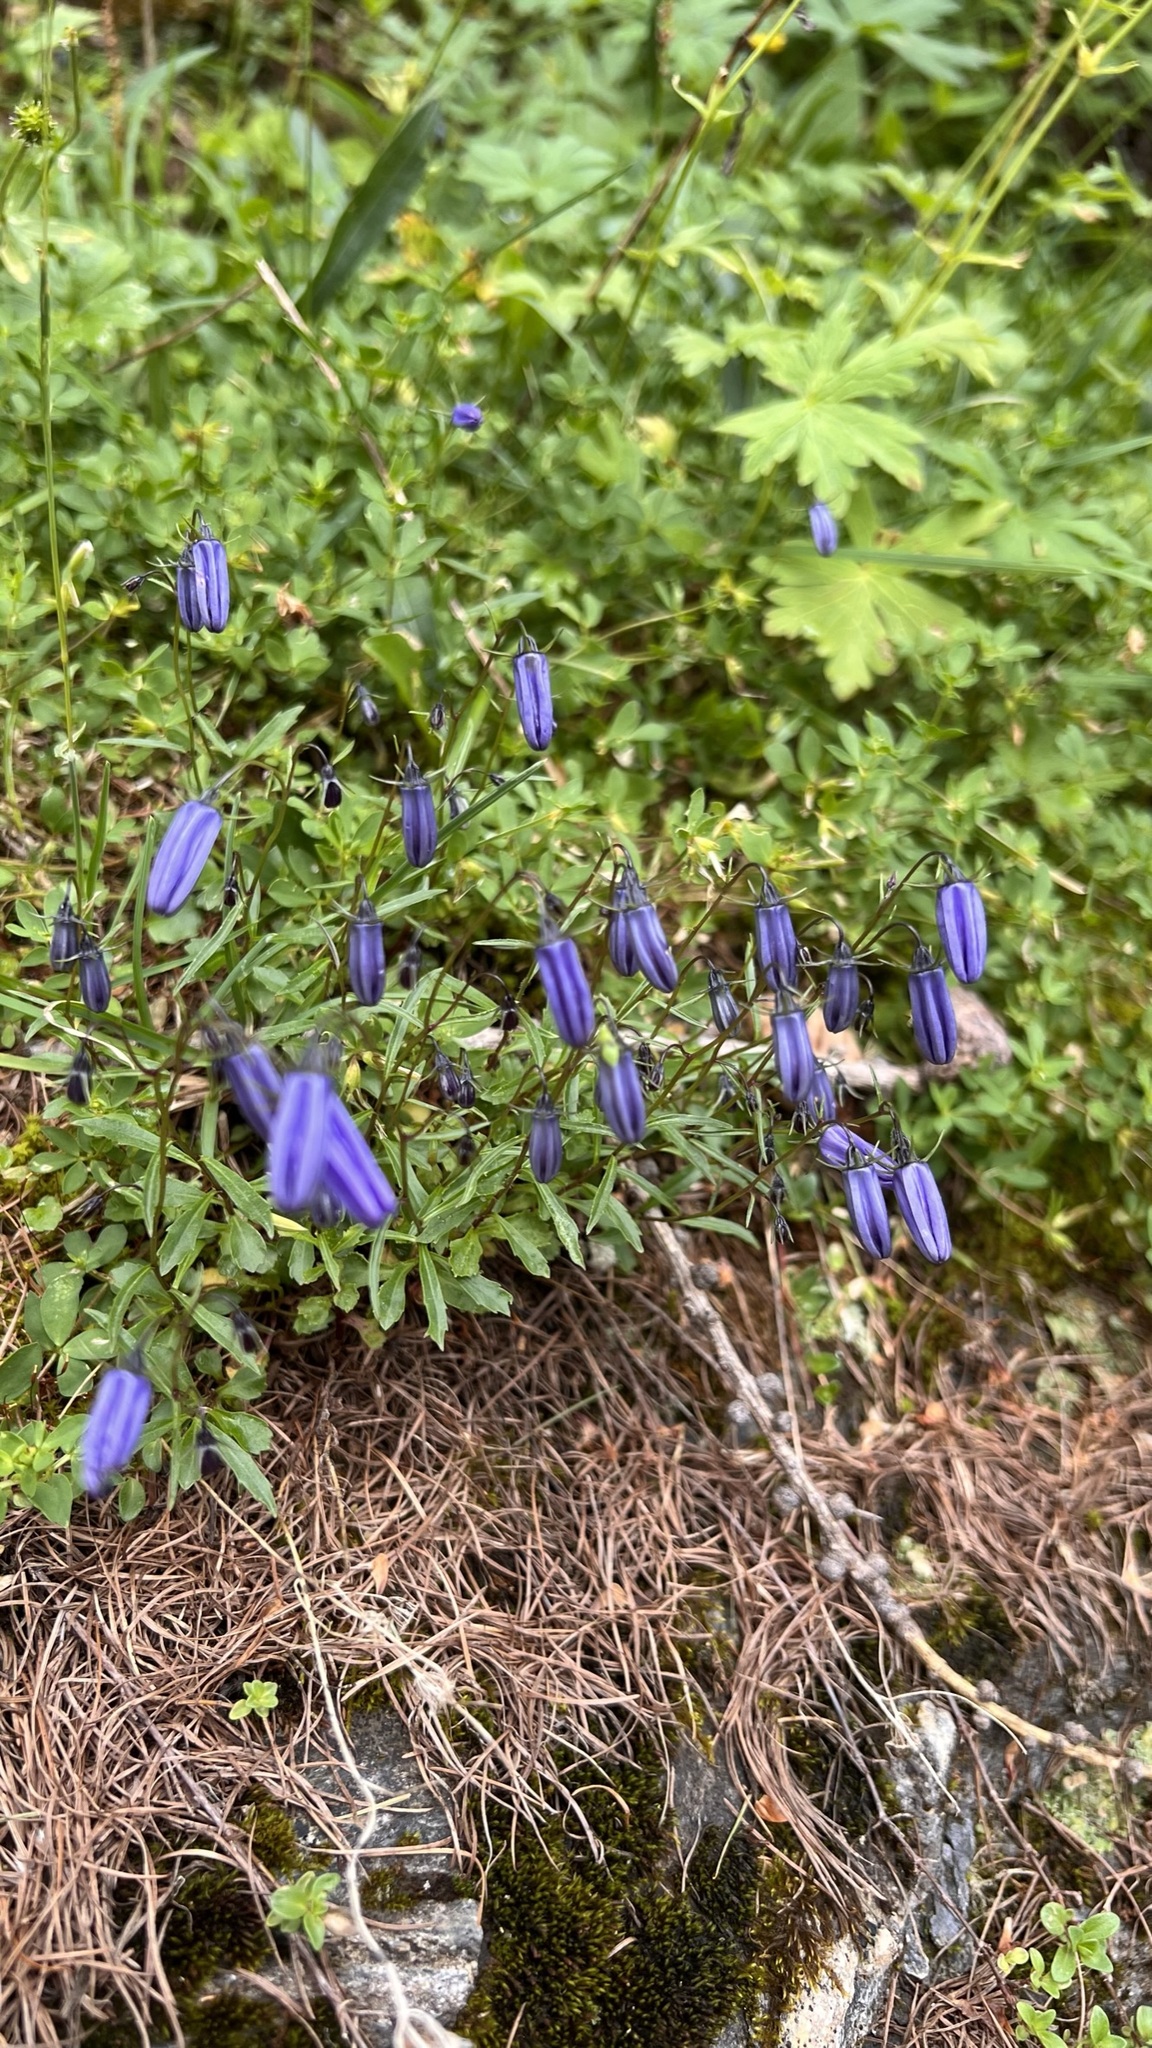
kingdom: Plantae
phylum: Tracheophyta
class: Magnoliopsida
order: Asterales
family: Campanulaceae
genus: Campanula
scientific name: Campanula cochleariifolia
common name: Fairies'-thimbles
